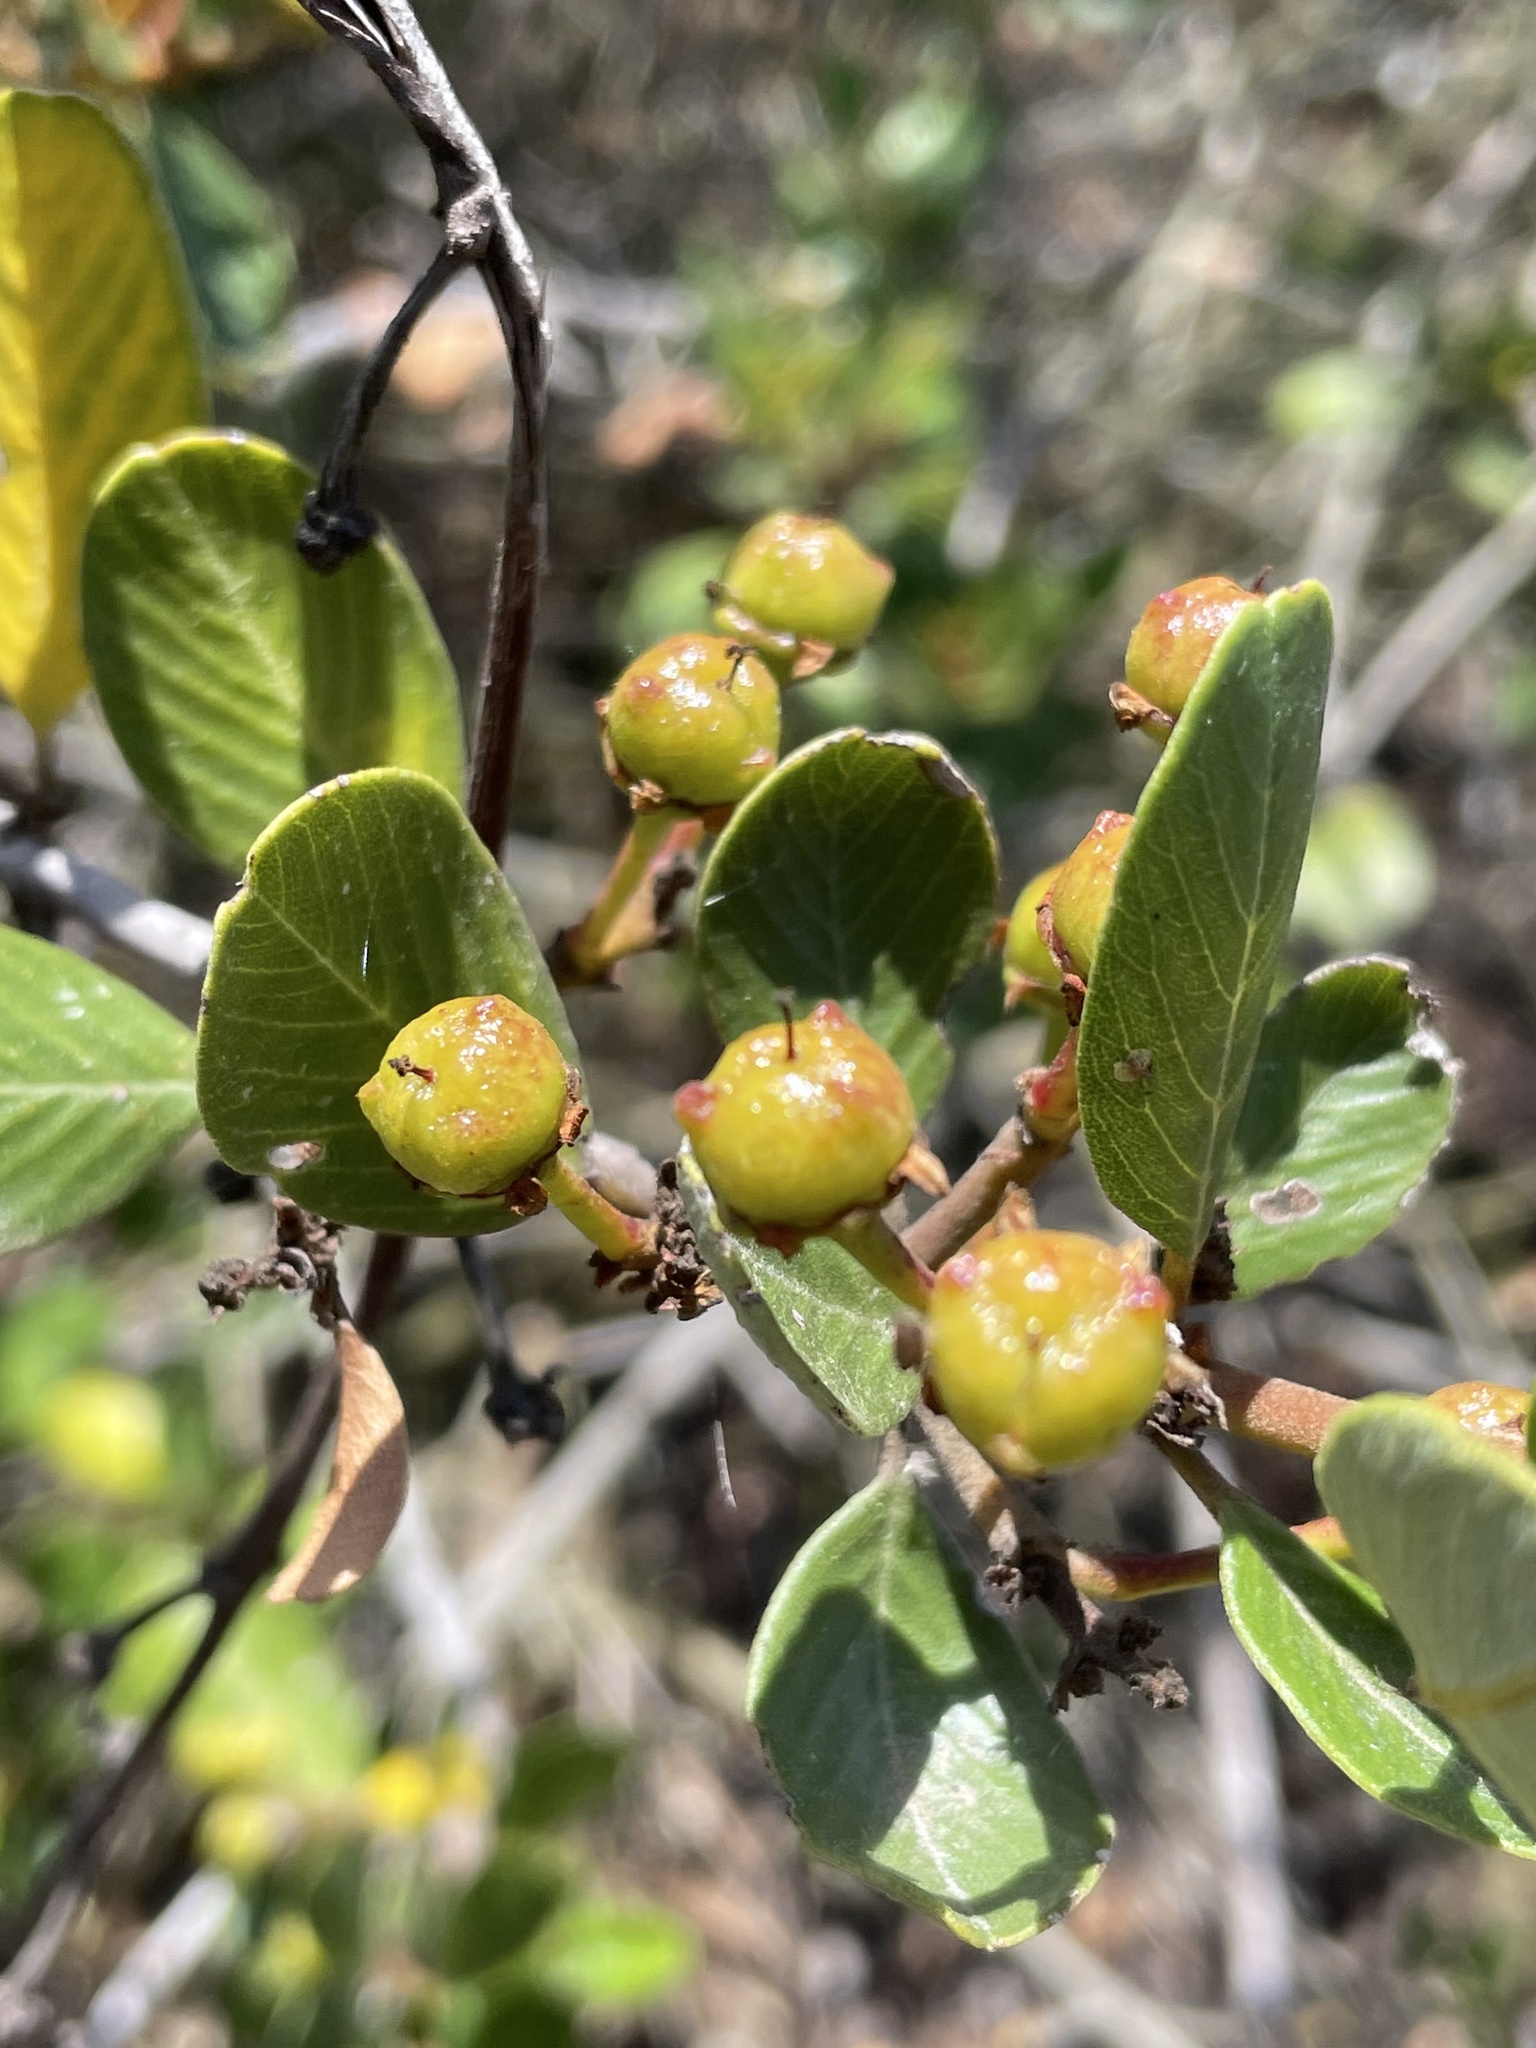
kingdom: Plantae
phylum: Tracheophyta
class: Magnoliopsida
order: Rosales
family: Rhamnaceae
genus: Ceanothus
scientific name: Ceanothus megacarpus
